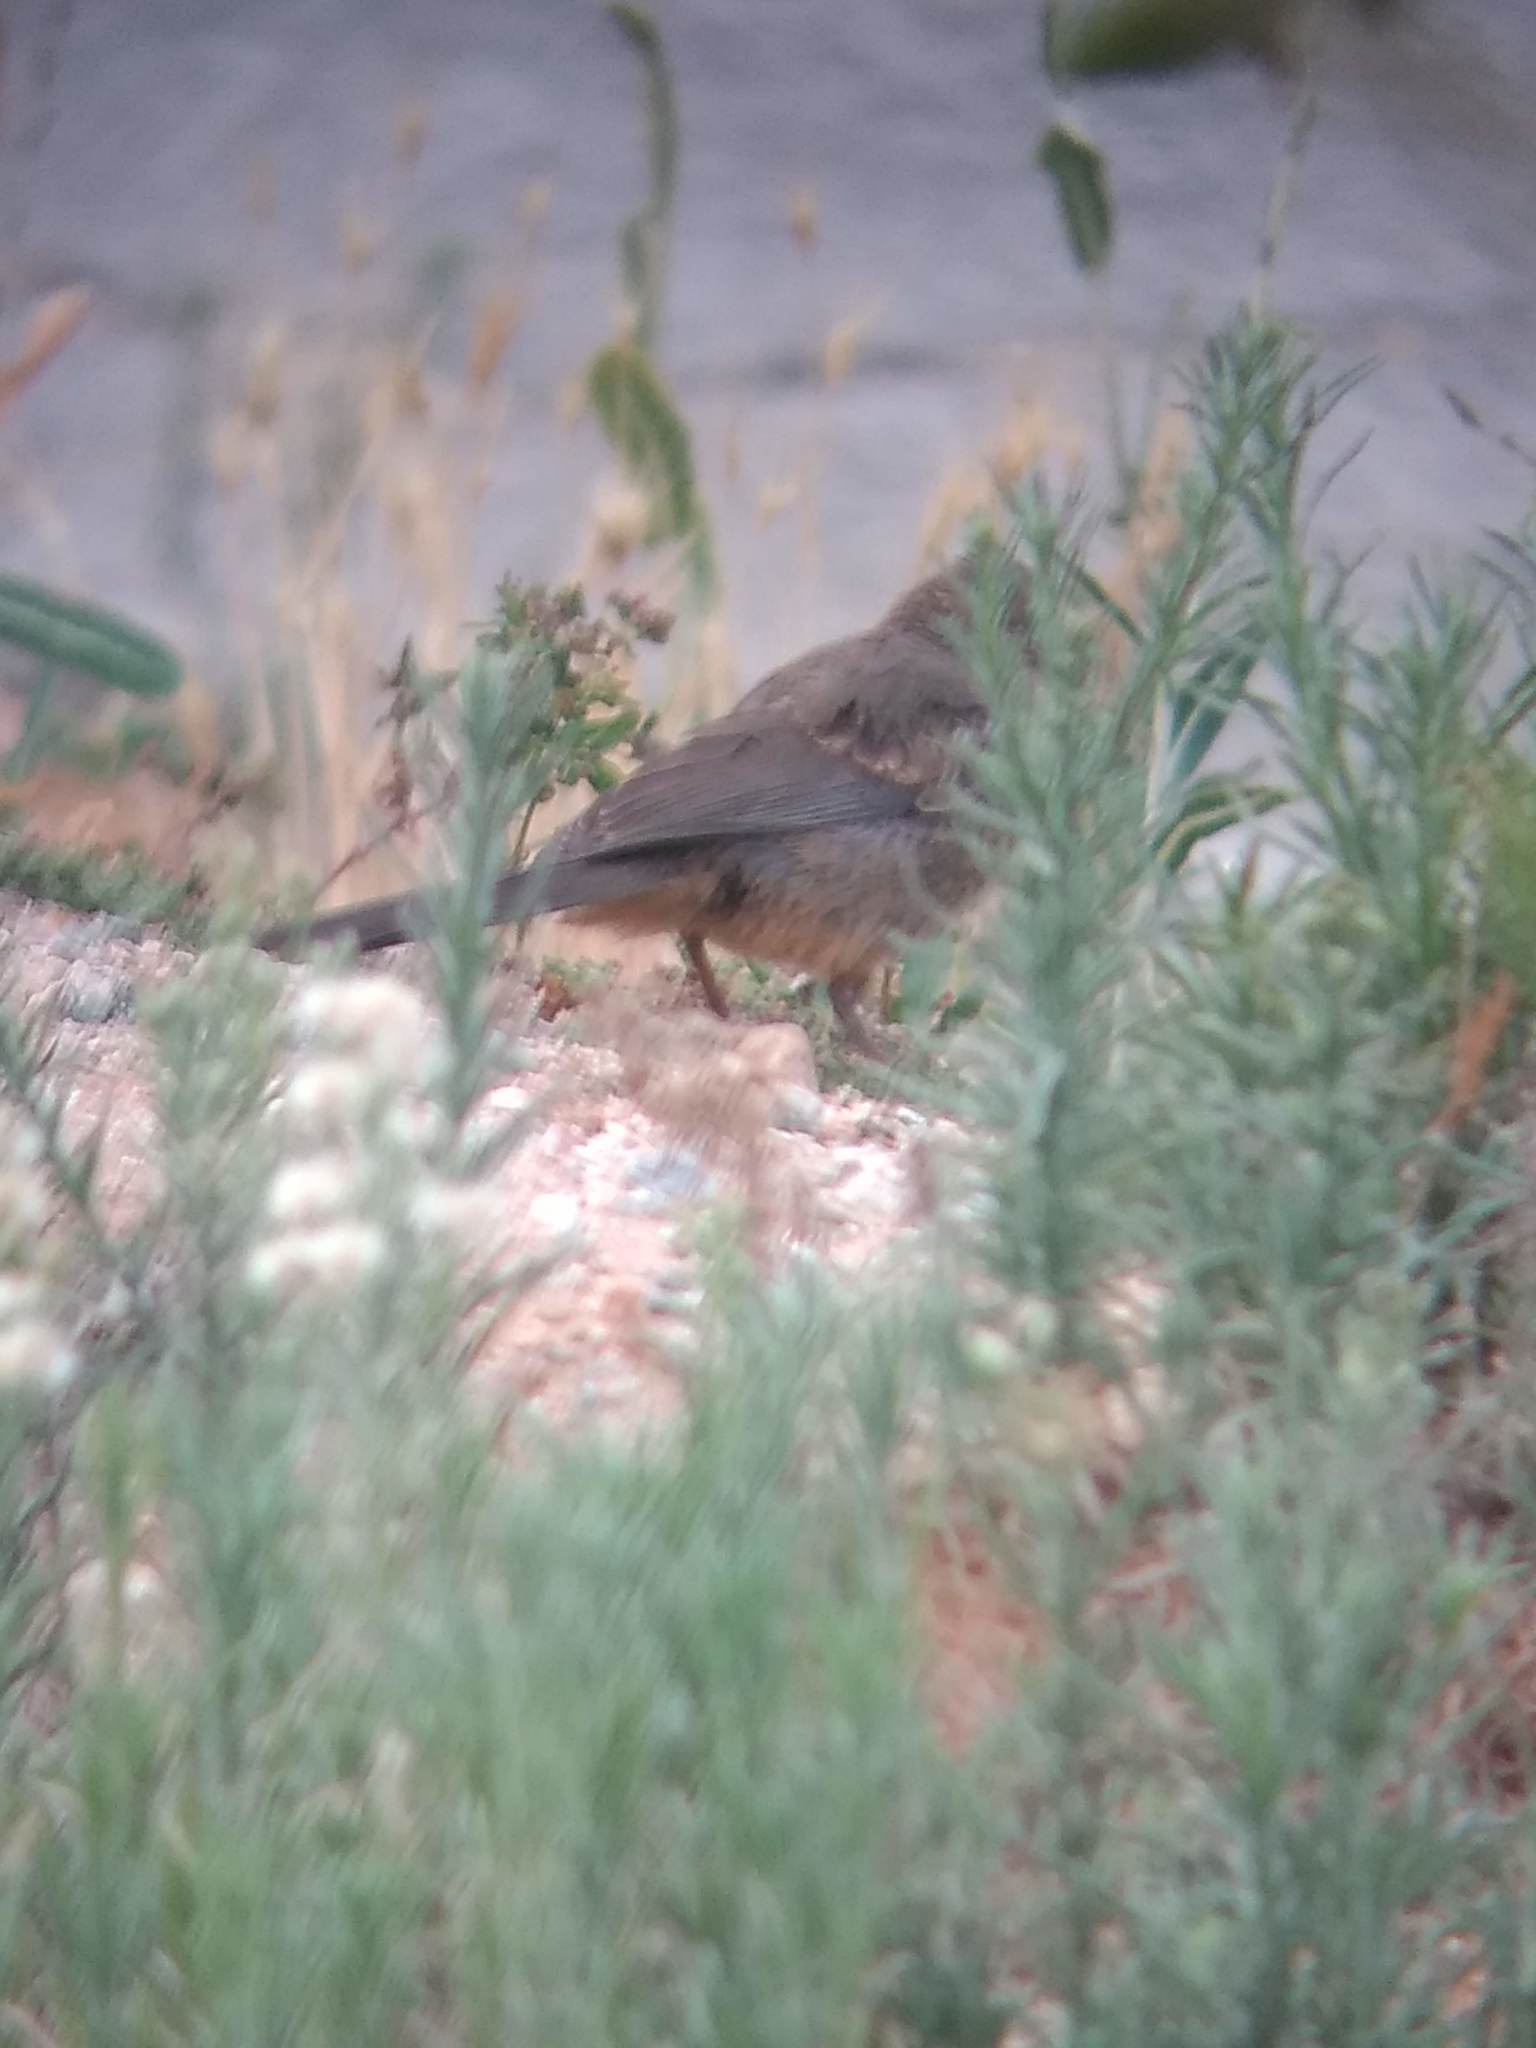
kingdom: Animalia
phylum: Chordata
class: Aves
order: Passeriformes
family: Passerellidae
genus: Melozone
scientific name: Melozone crissalis
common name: California towhee
